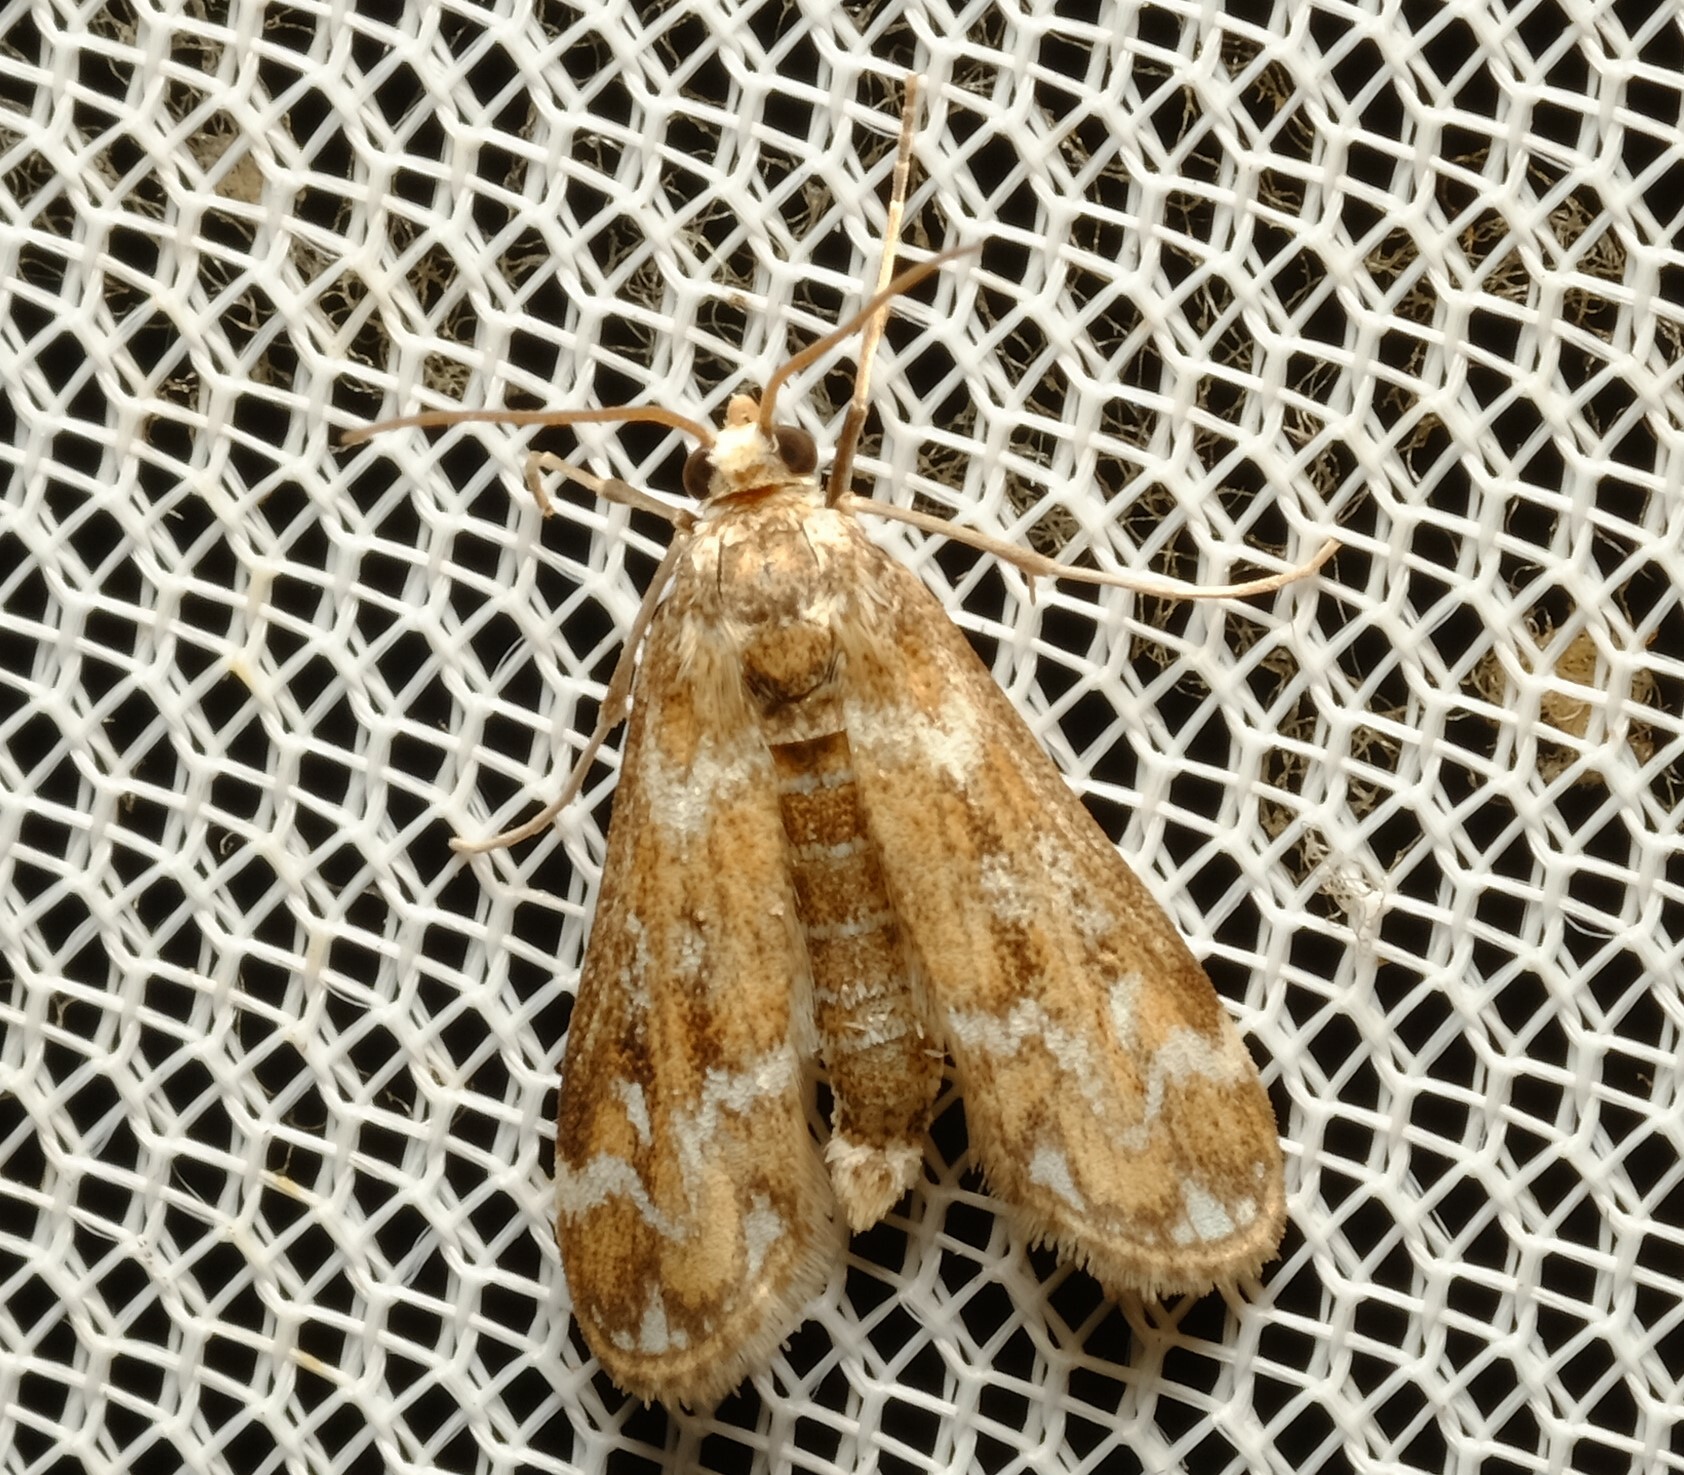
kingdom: Animalia
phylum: Arthropoda
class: Insecta
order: Lepidoptera
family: Crambidae
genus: Hygraula
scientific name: Hygraula nitens
